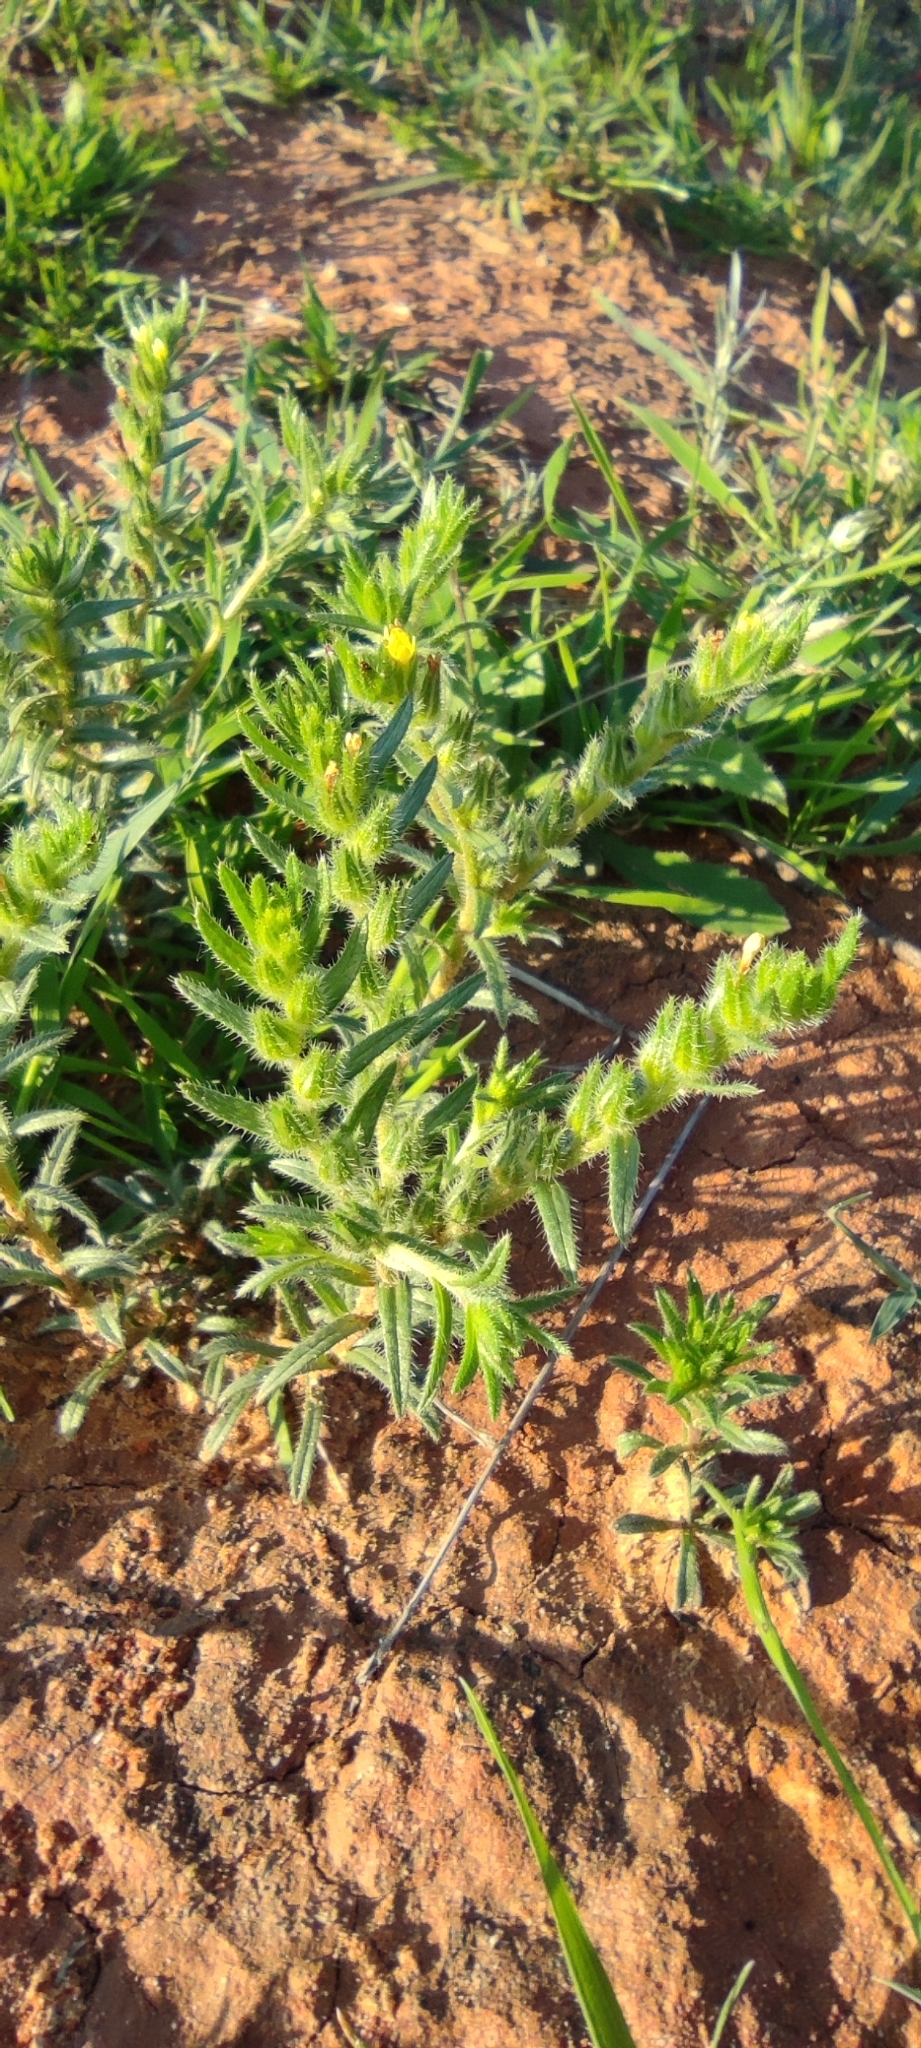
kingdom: Plantae
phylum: Tracheophyta
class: Magnoliopsida
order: Boraginales
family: Boraginaceae
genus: Neatostema
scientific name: Neatostema apulum
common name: Hairy sheepweed
